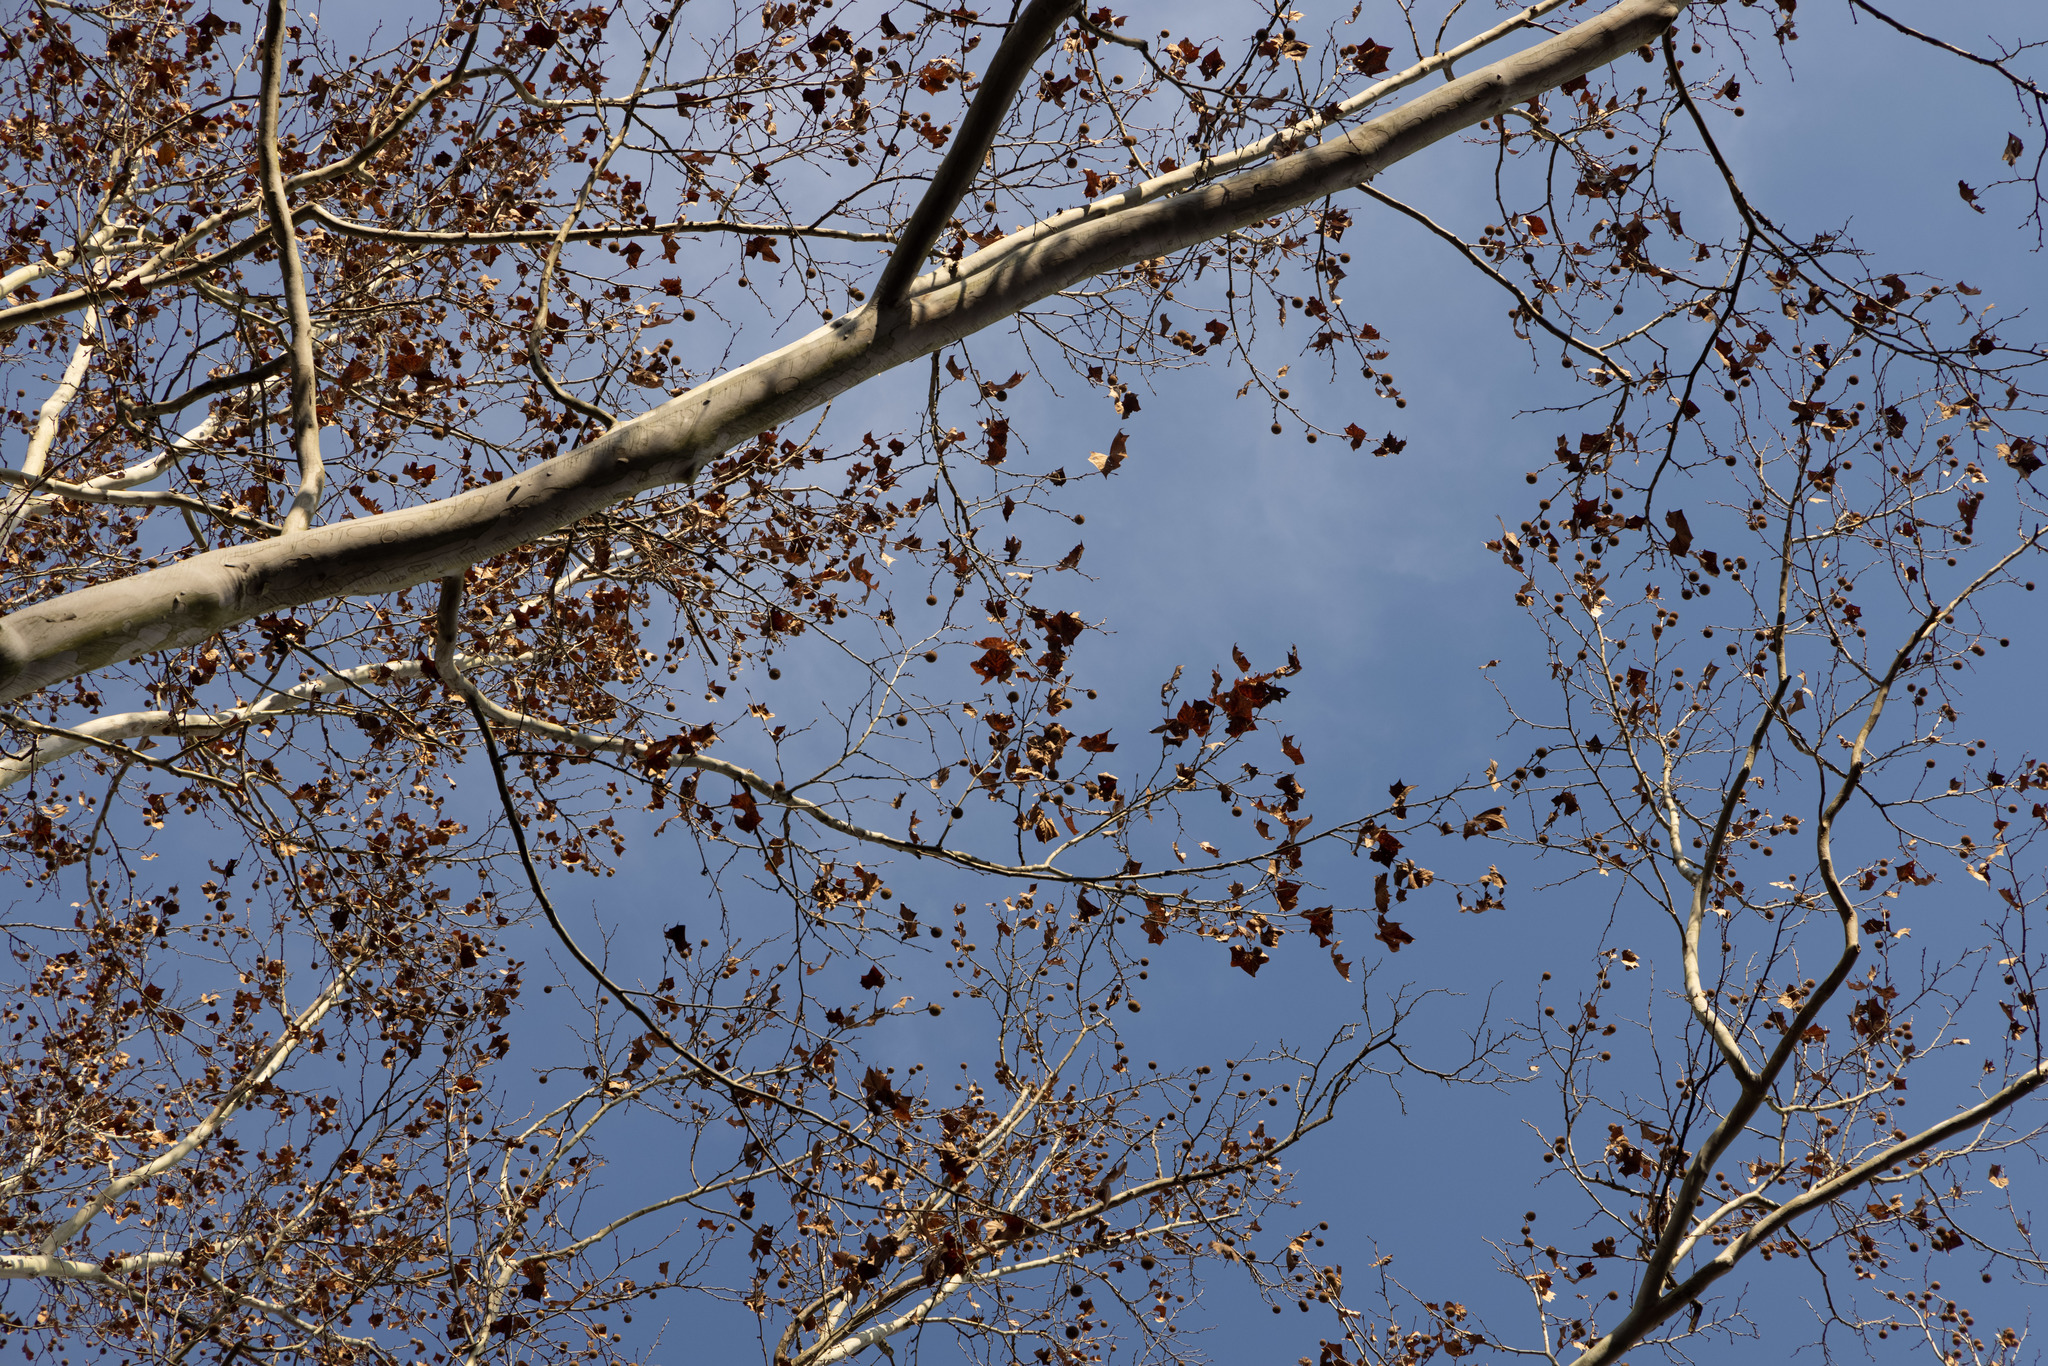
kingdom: Plantae
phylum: Tracheophyta
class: Magnoliopsida
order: Proteales
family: Platanaceae
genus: Platanus
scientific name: Platanus occidentalis
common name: American sycamore
